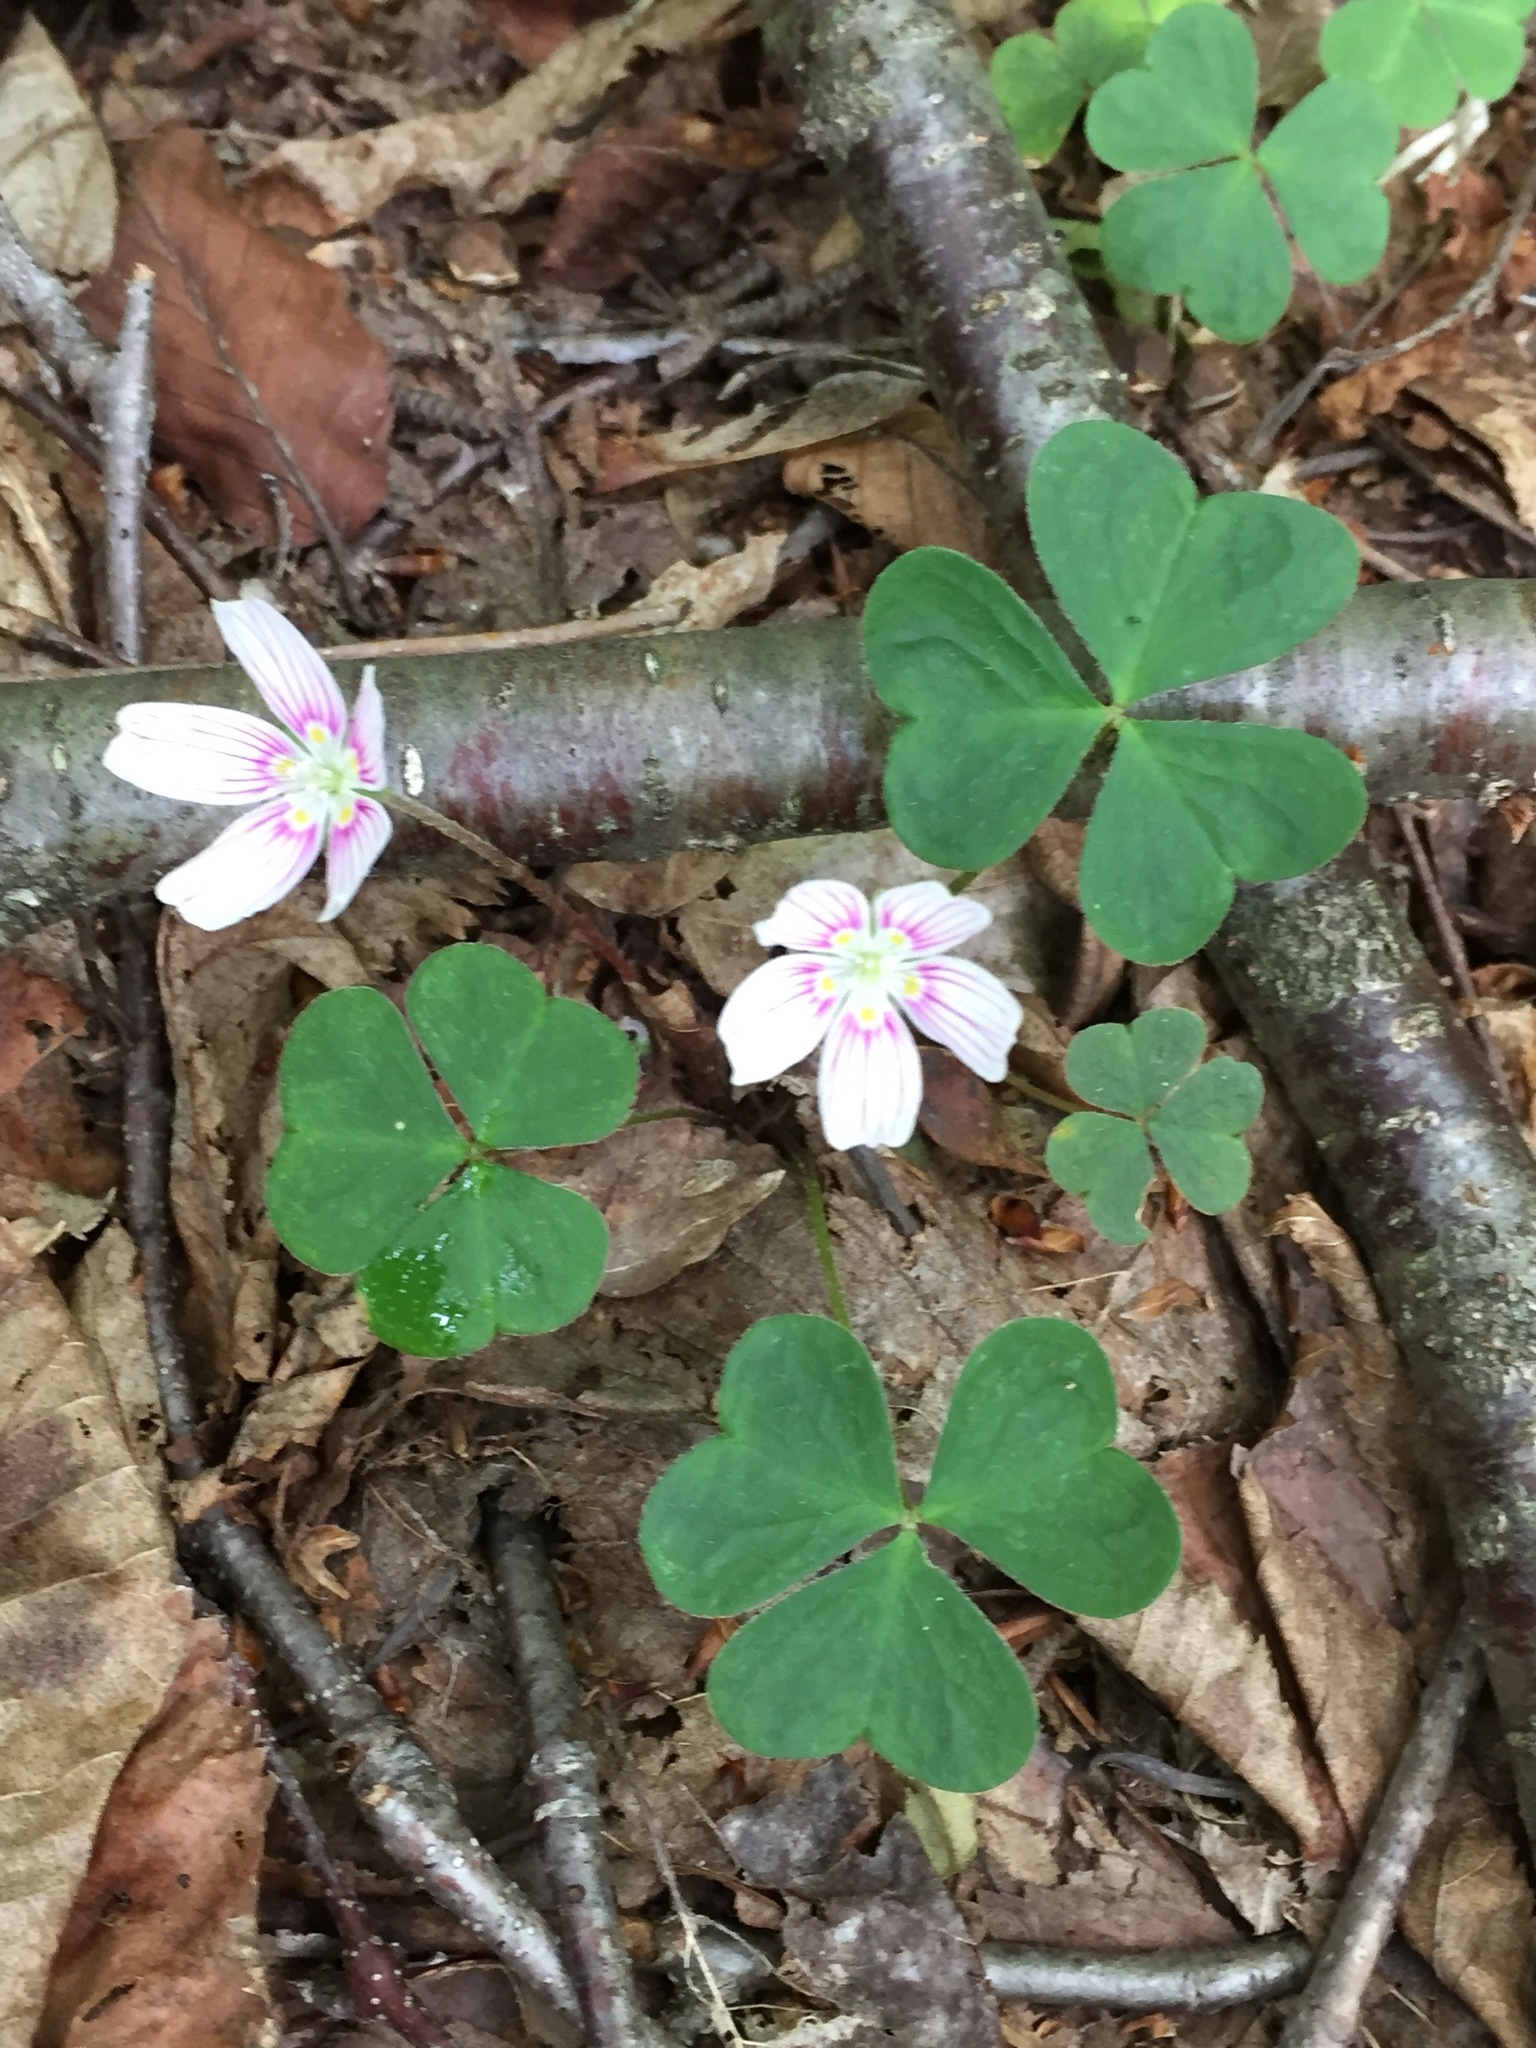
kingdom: Plantae
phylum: Tracheophyta
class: Magnoliopsida
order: Oxalidales
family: Oxalidaceae
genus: Oxalis
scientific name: Oxalis montana
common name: American wood-sorrel
